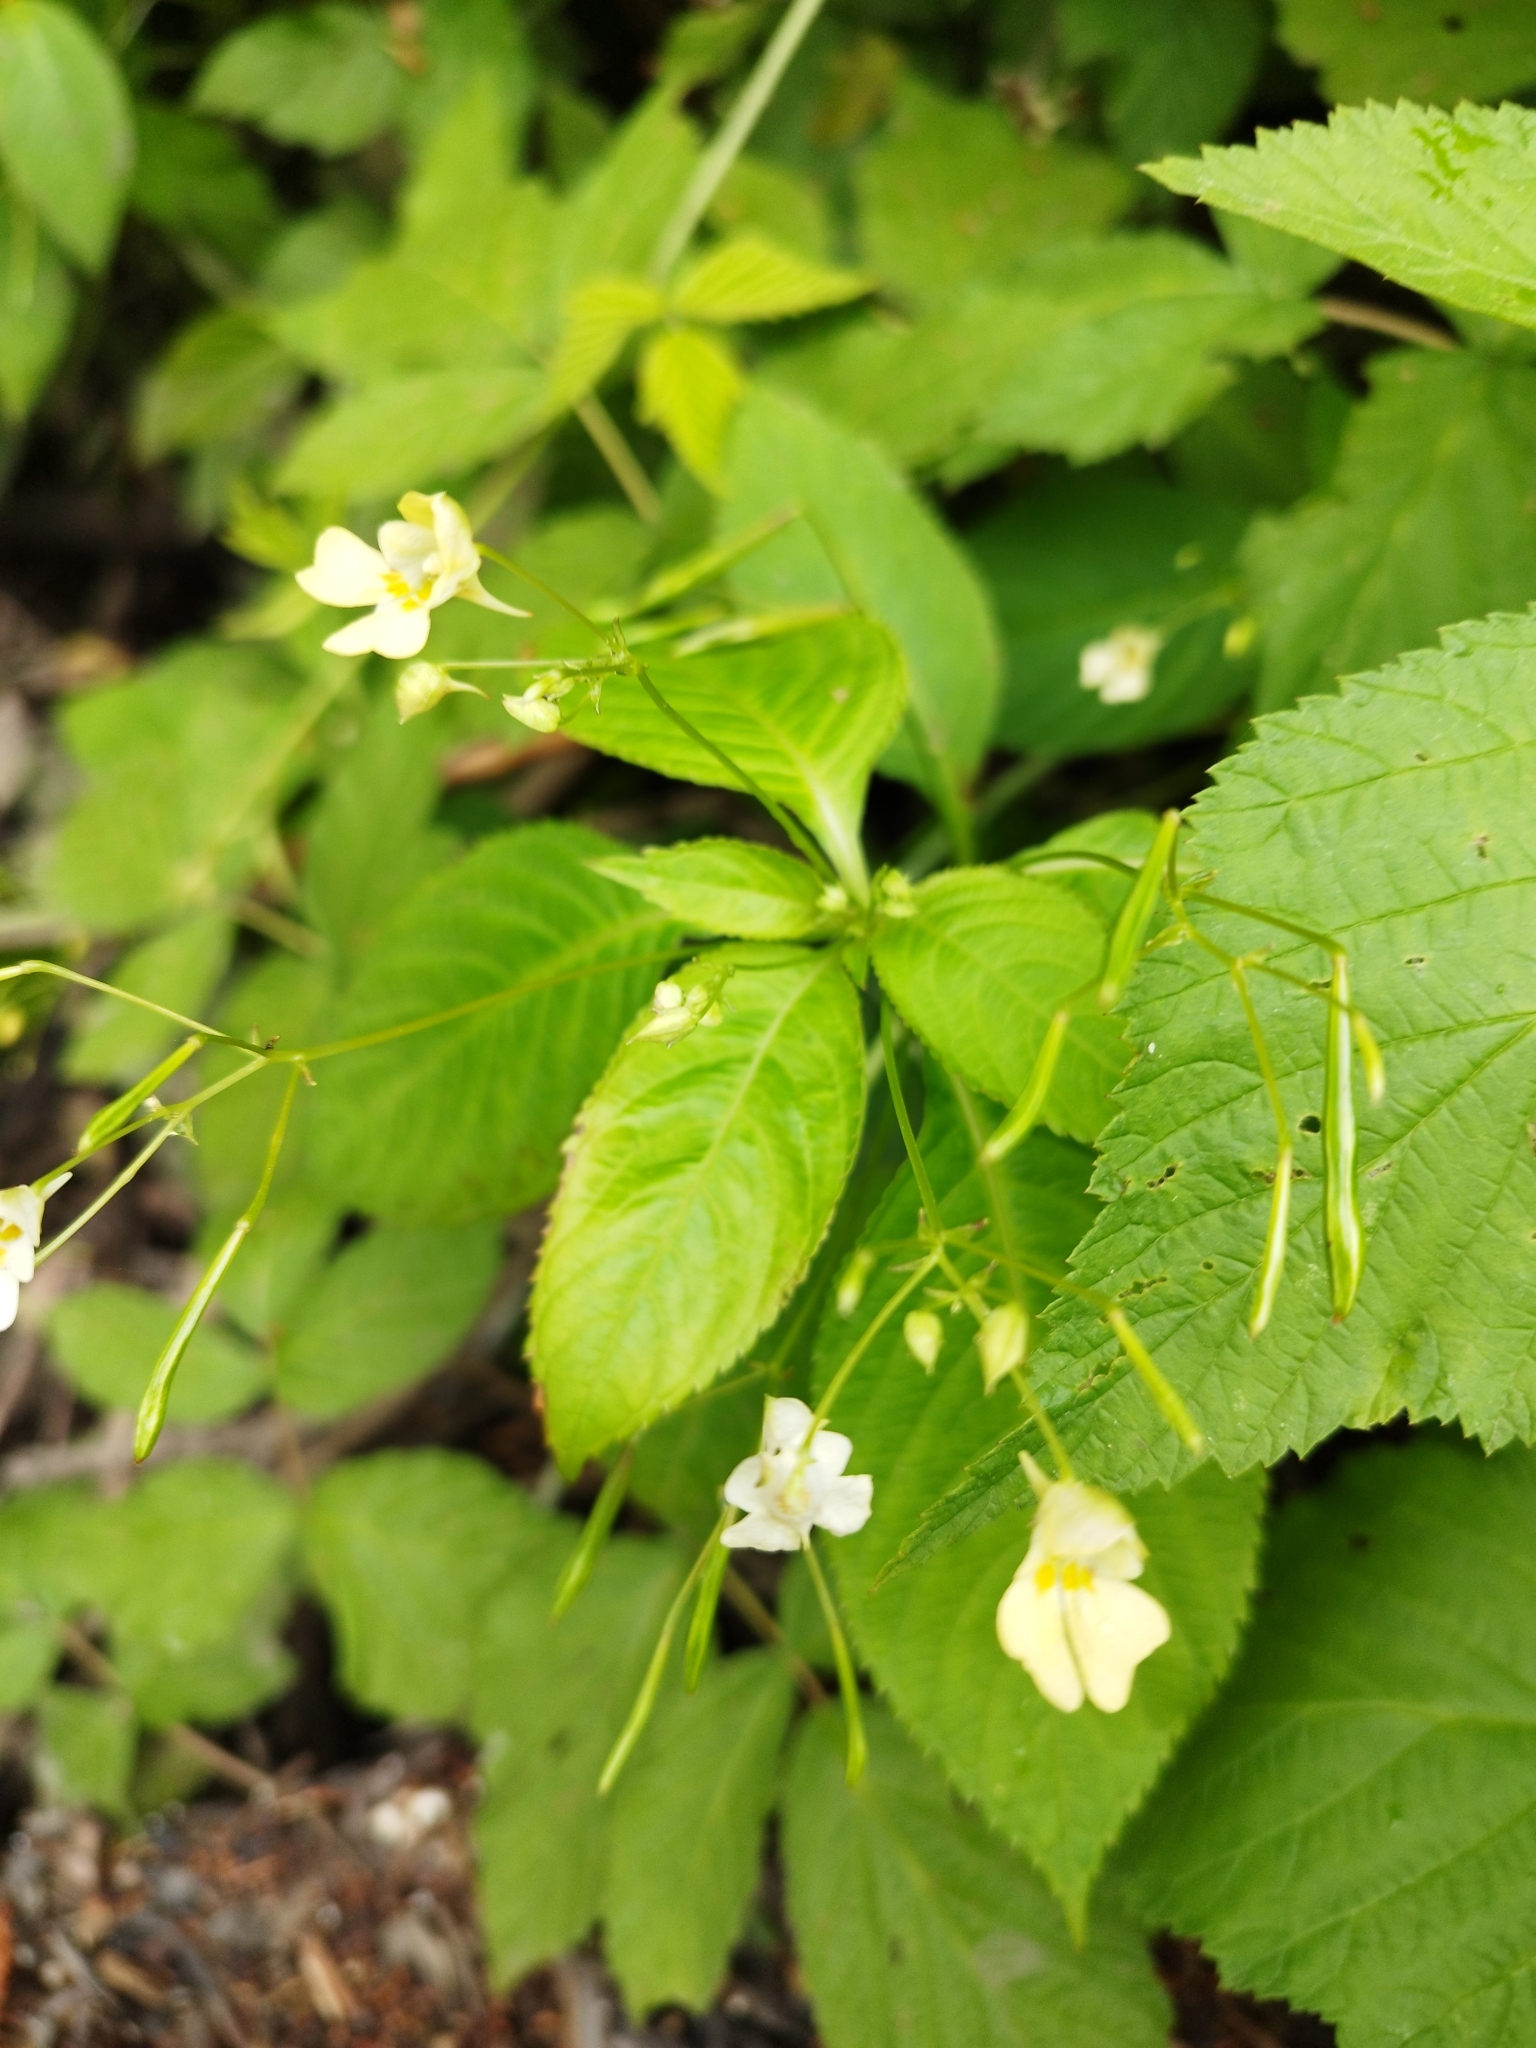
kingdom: Plantae
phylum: Tracheophyta
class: Magnoliopsida
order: Ericales
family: Balsaminaceae
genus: Impatiens
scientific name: Impatiens parviflora
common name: Small balsam
